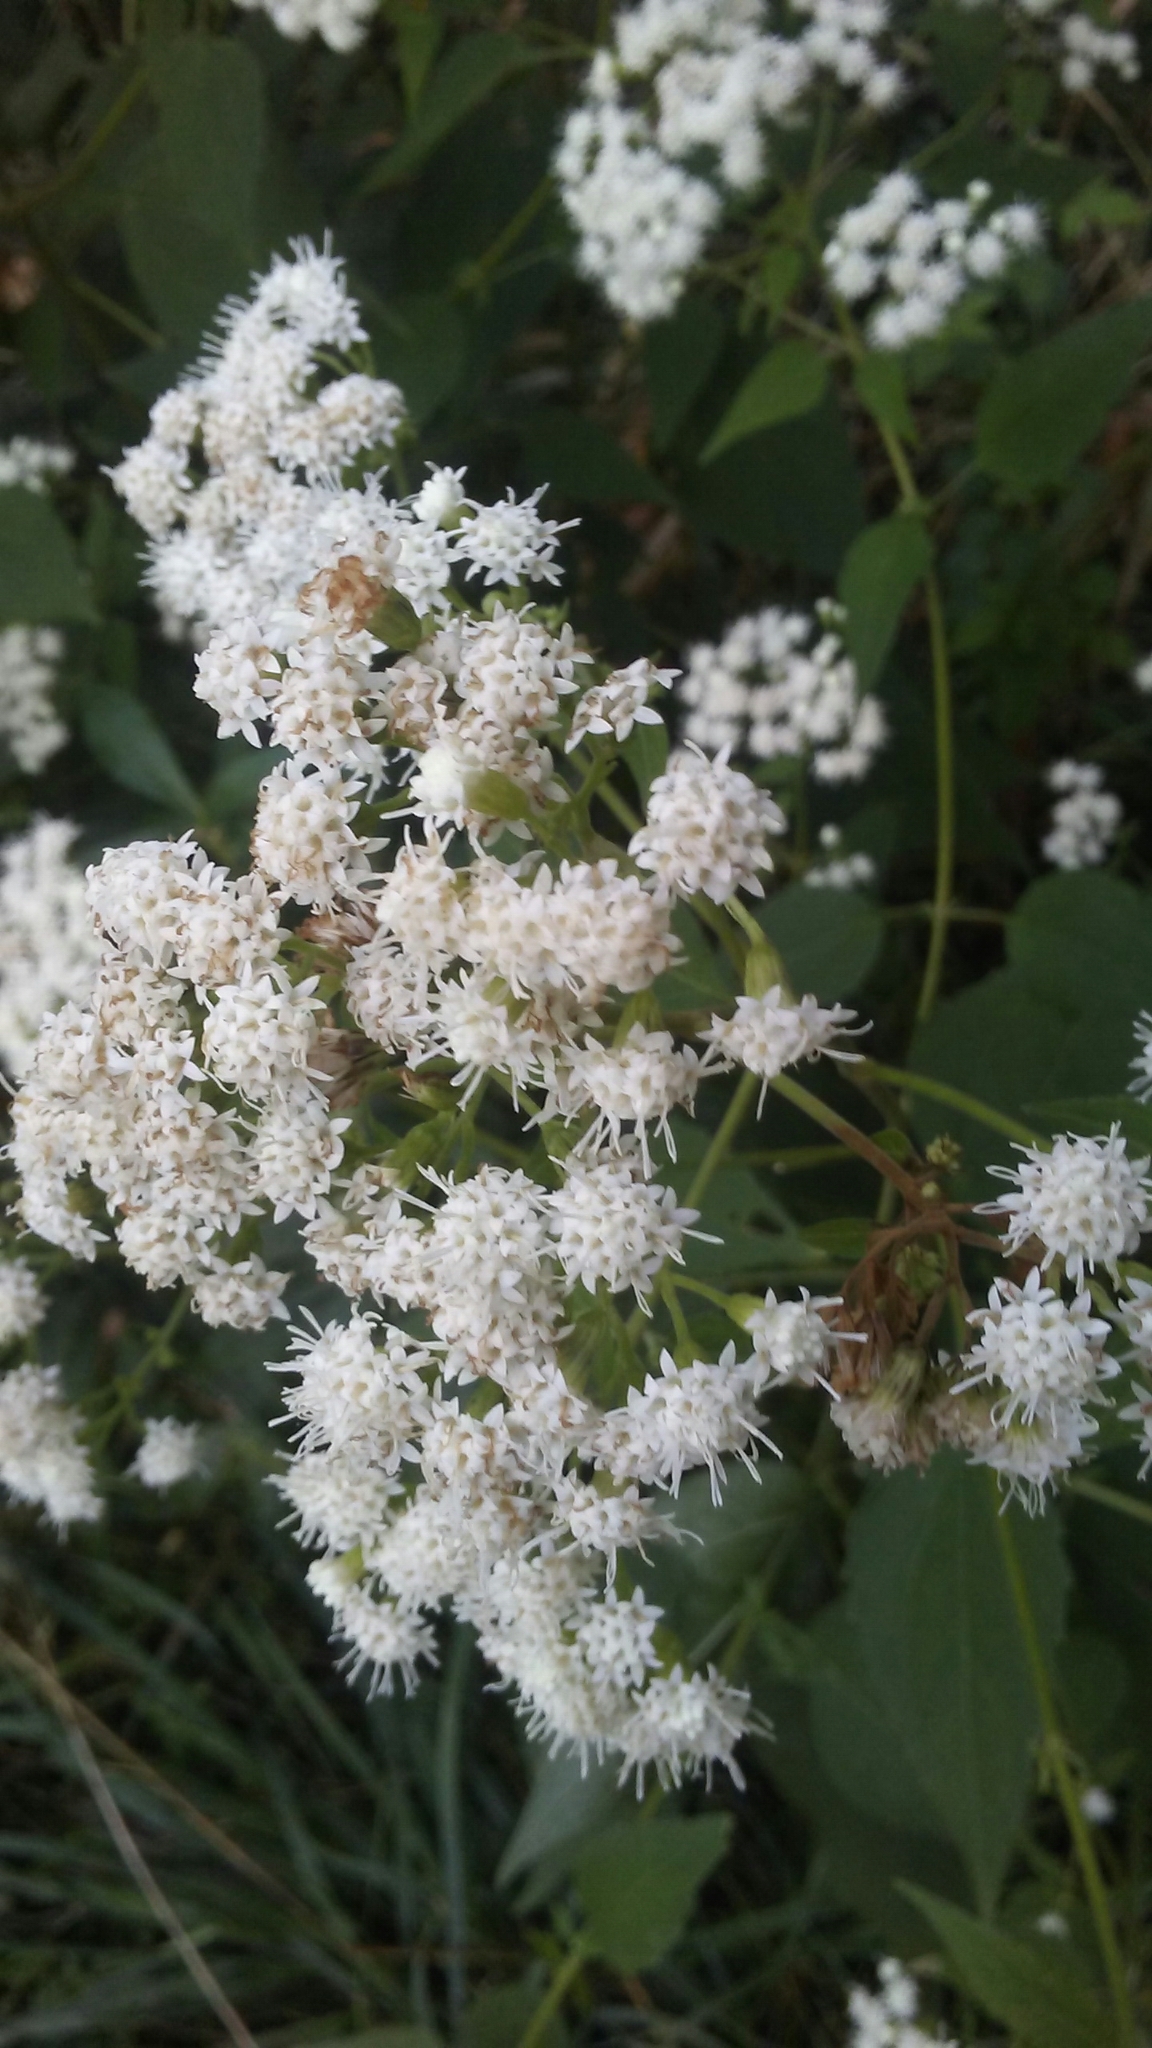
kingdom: Plantae
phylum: Tracheophyta
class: Magnoliopsida
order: Asterales
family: Asteraceae
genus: Ageratina
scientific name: Ageratina altissima
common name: White snakeroot
